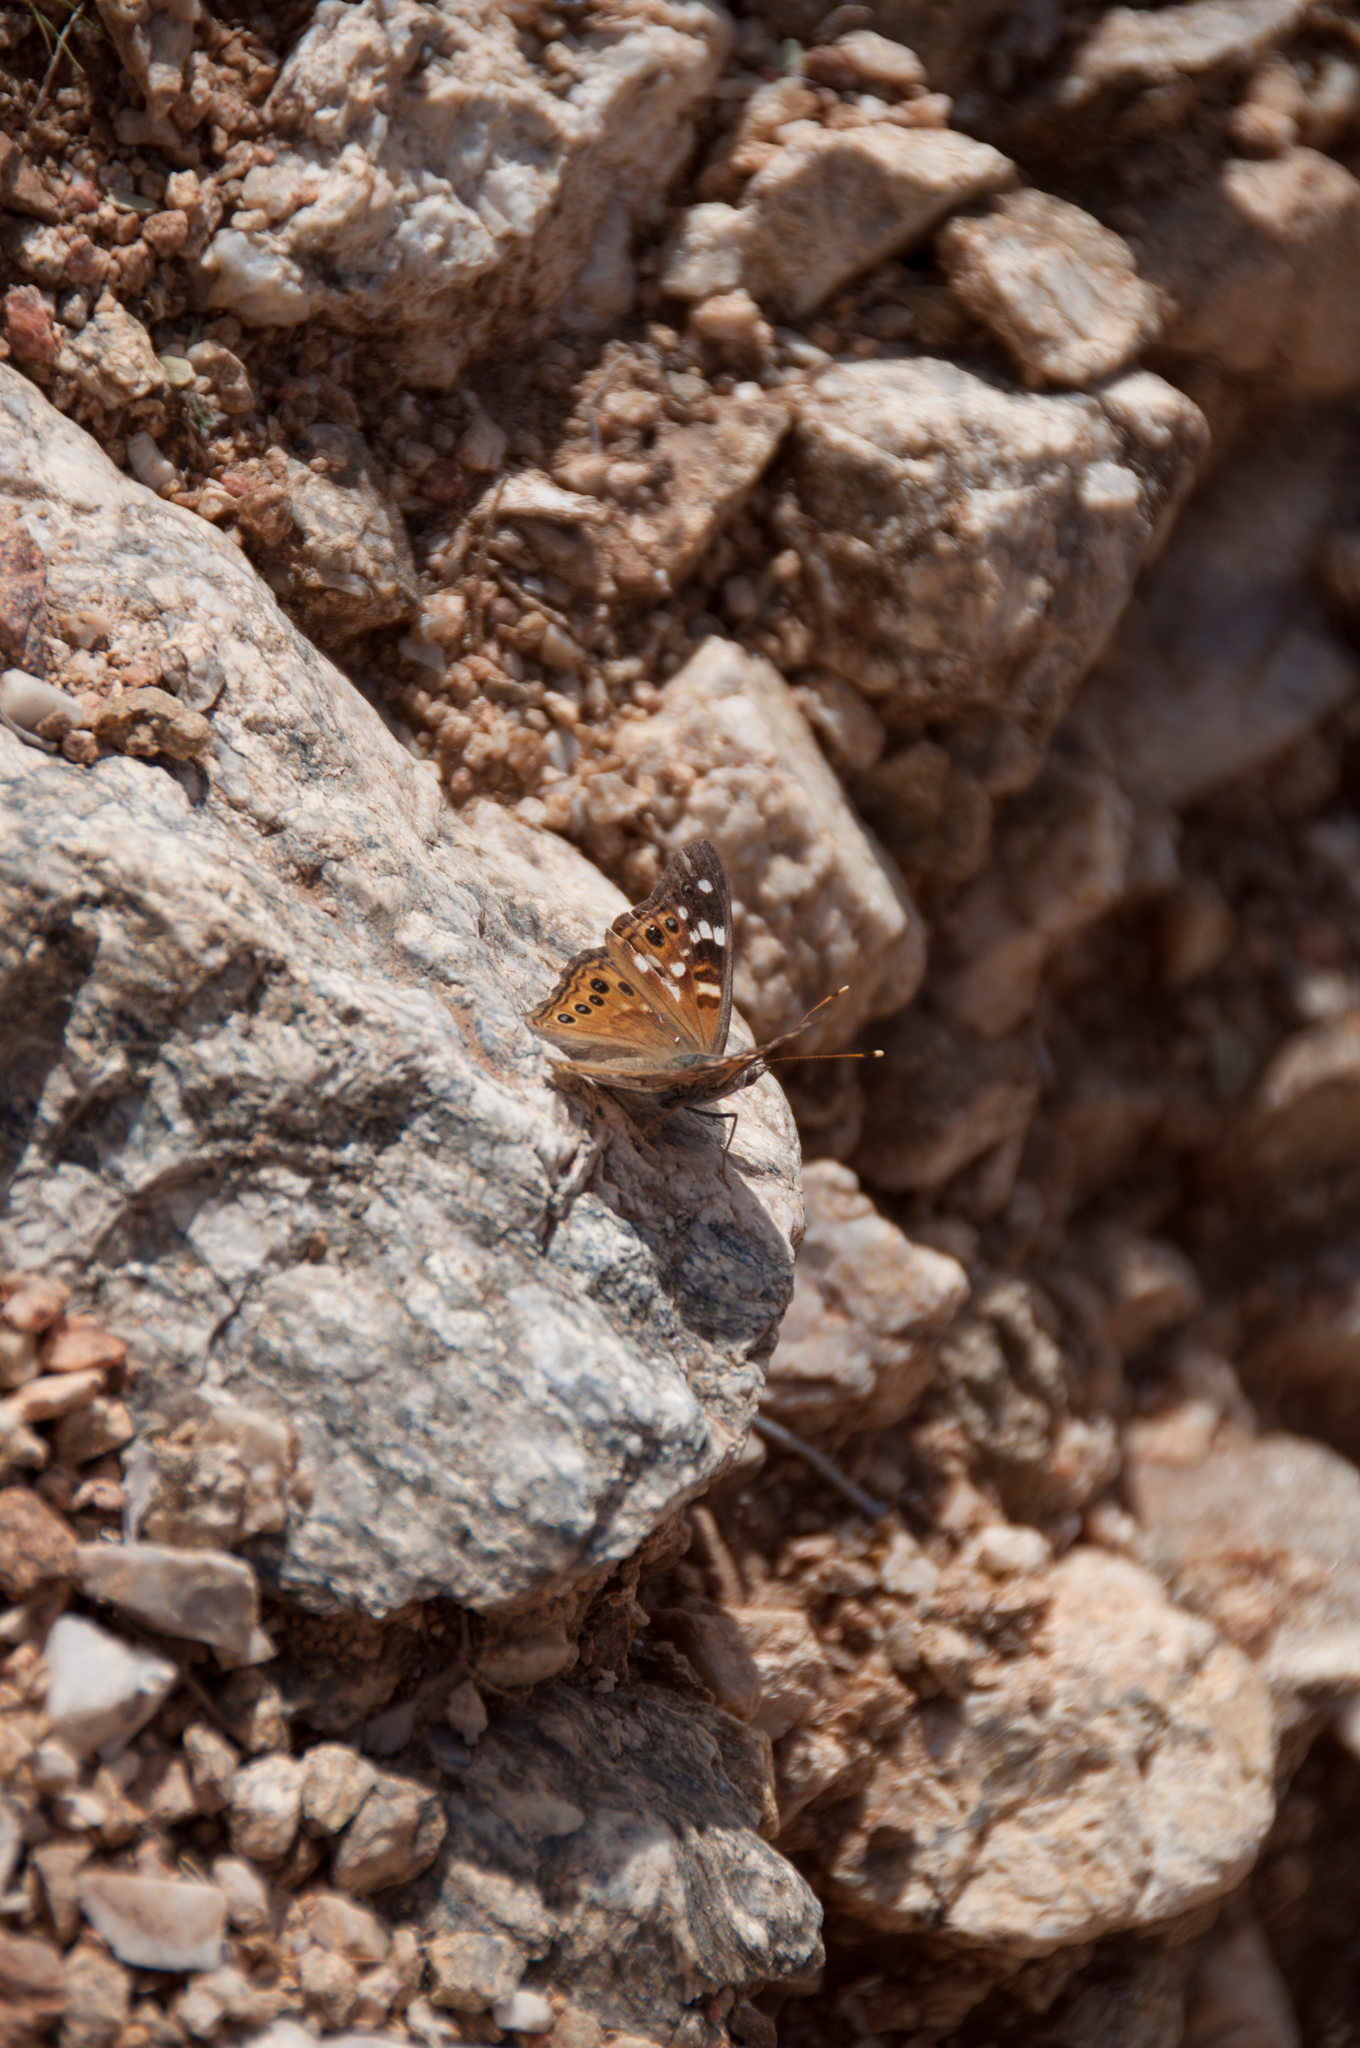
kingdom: Animalia
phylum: Arthropoda
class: Insecta
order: Lepidoptera
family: Nymphalidae
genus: Asterocampa
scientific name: Asterocampa leilia
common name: Empress leilia
